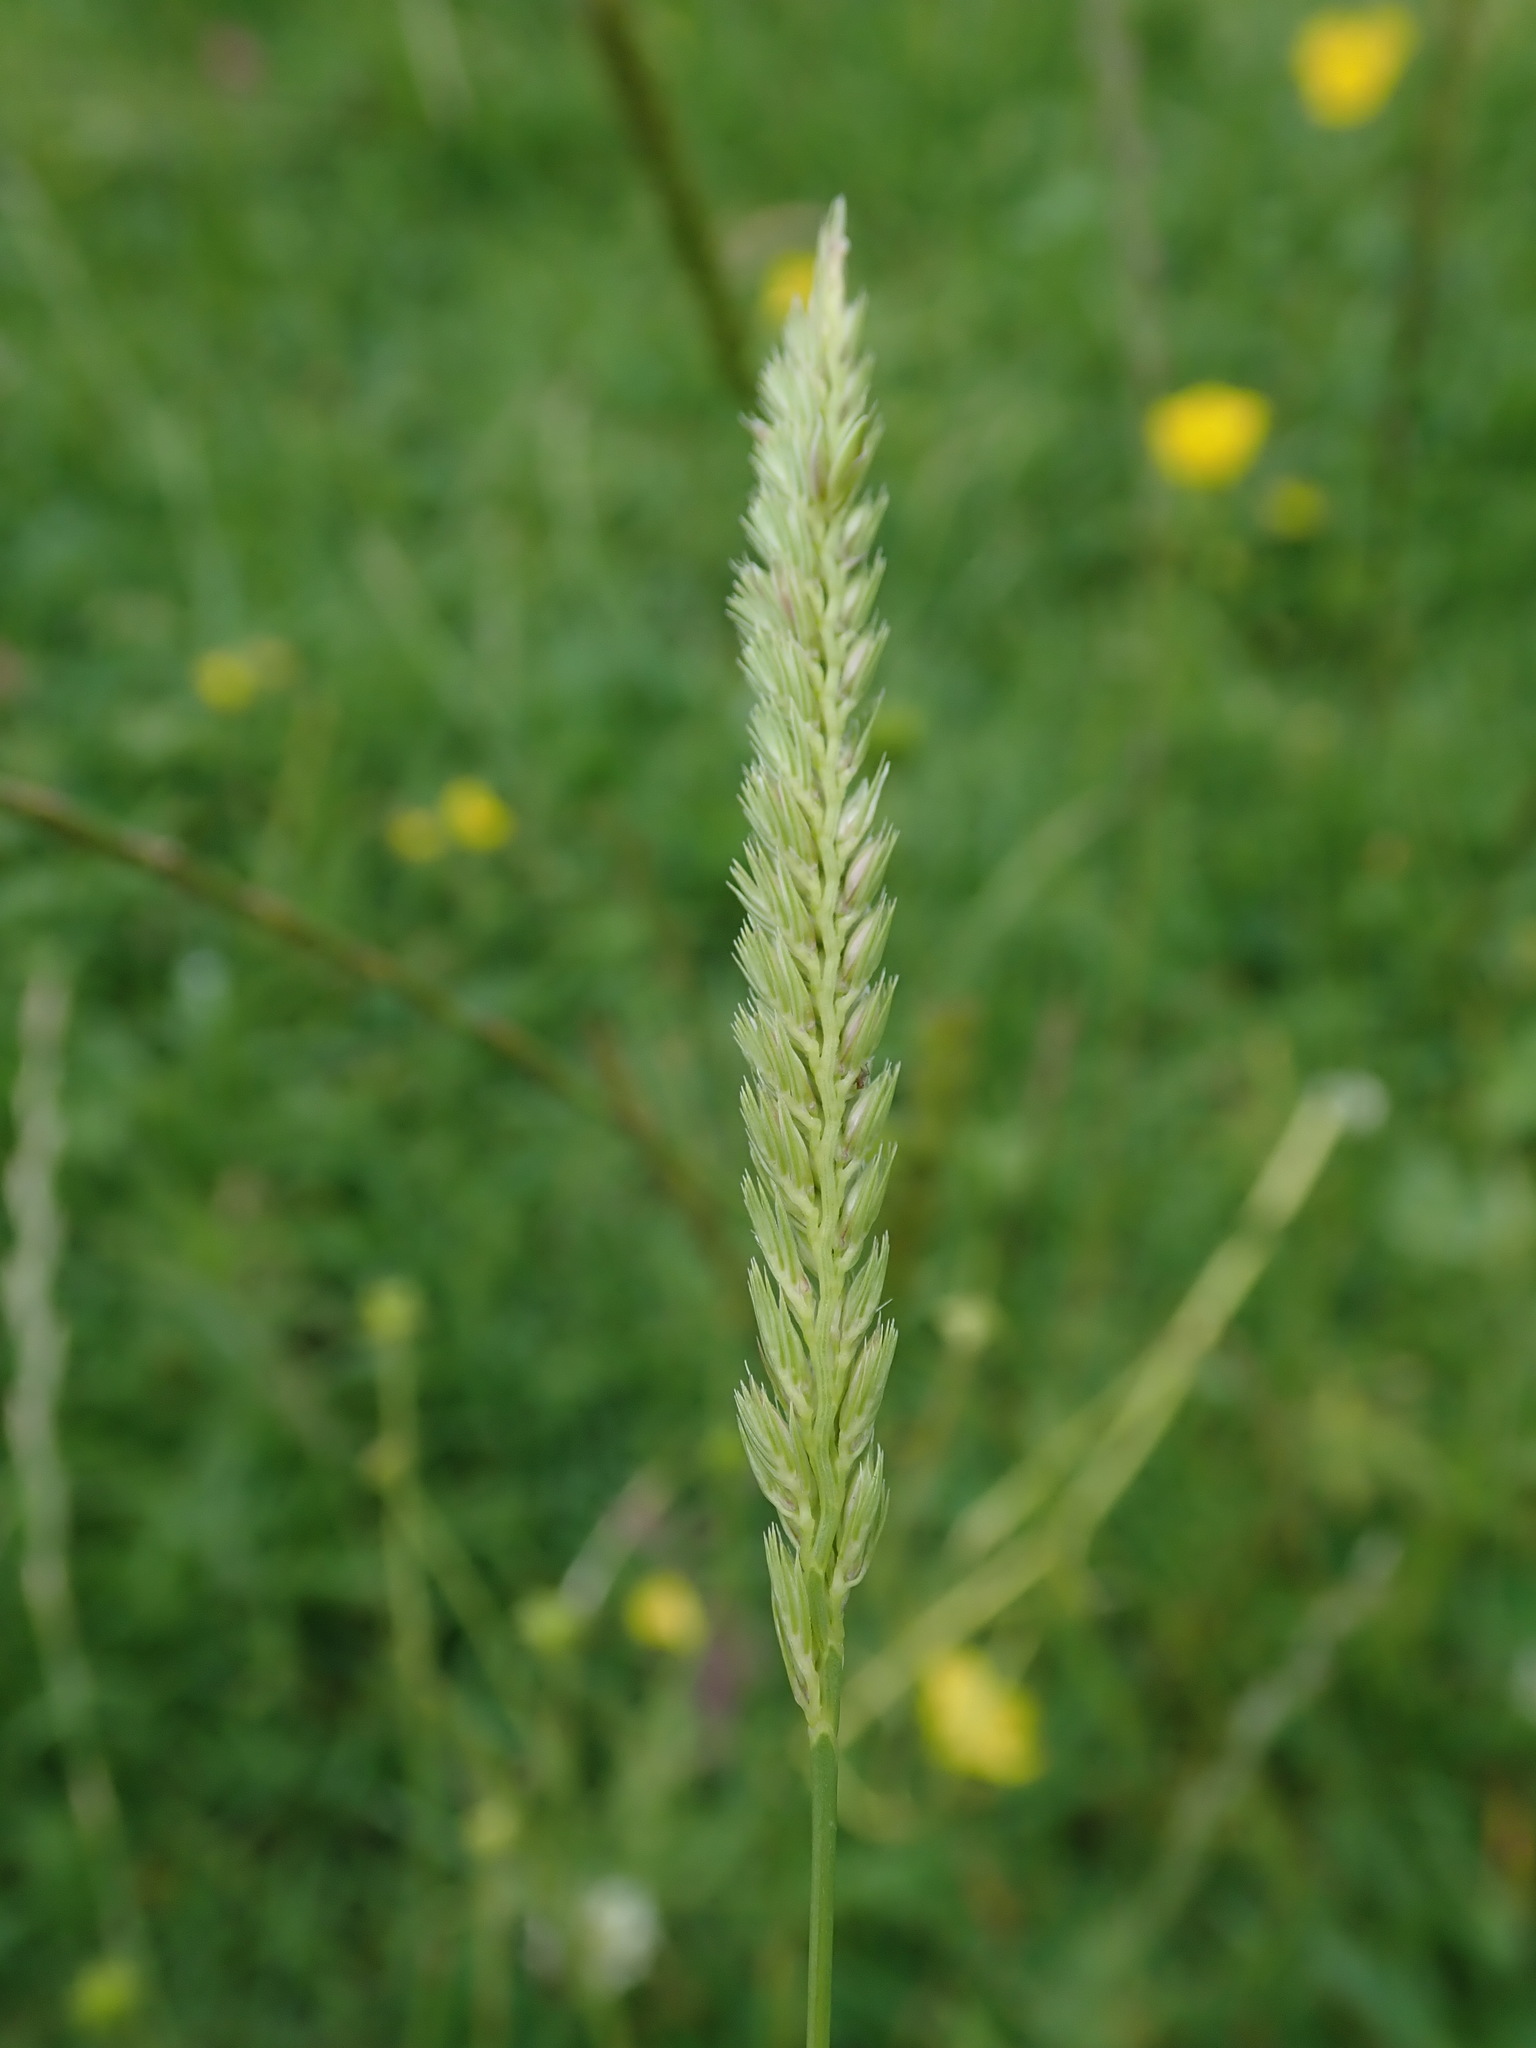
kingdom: Plantae
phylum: Tracheophyta
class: Liliopsida
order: Poales
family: Poaceae
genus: Cynosurus
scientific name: Cynosurus cristatus
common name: Crested dog's-tail
